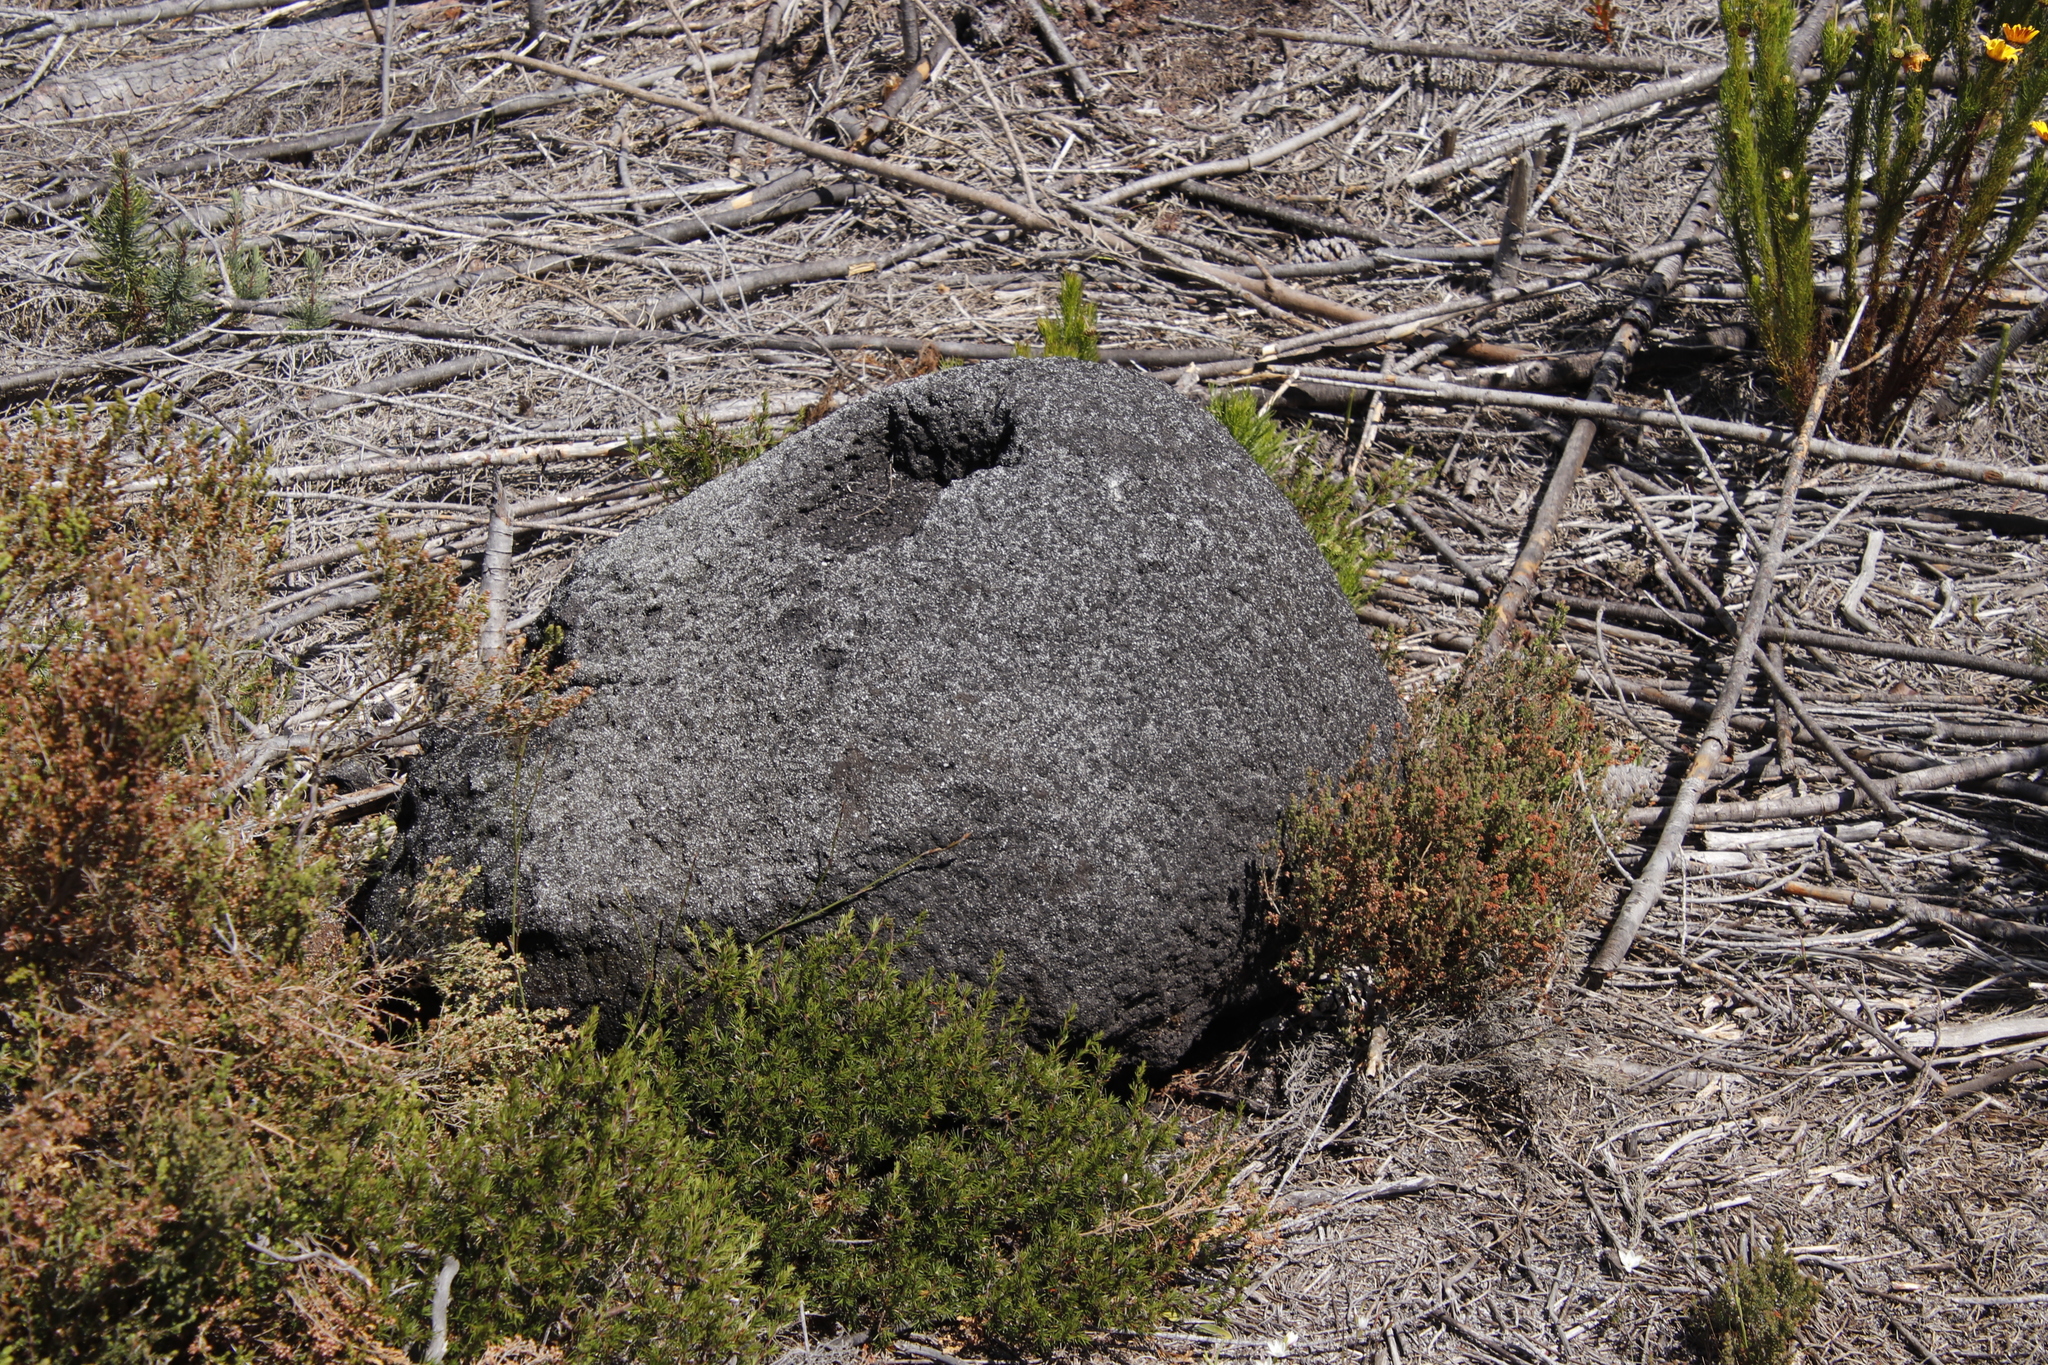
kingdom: Animalia
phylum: Arthropoda
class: Insecta
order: Blattodea
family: Termitidae
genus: Amitermes
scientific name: Amitermes hastatus
